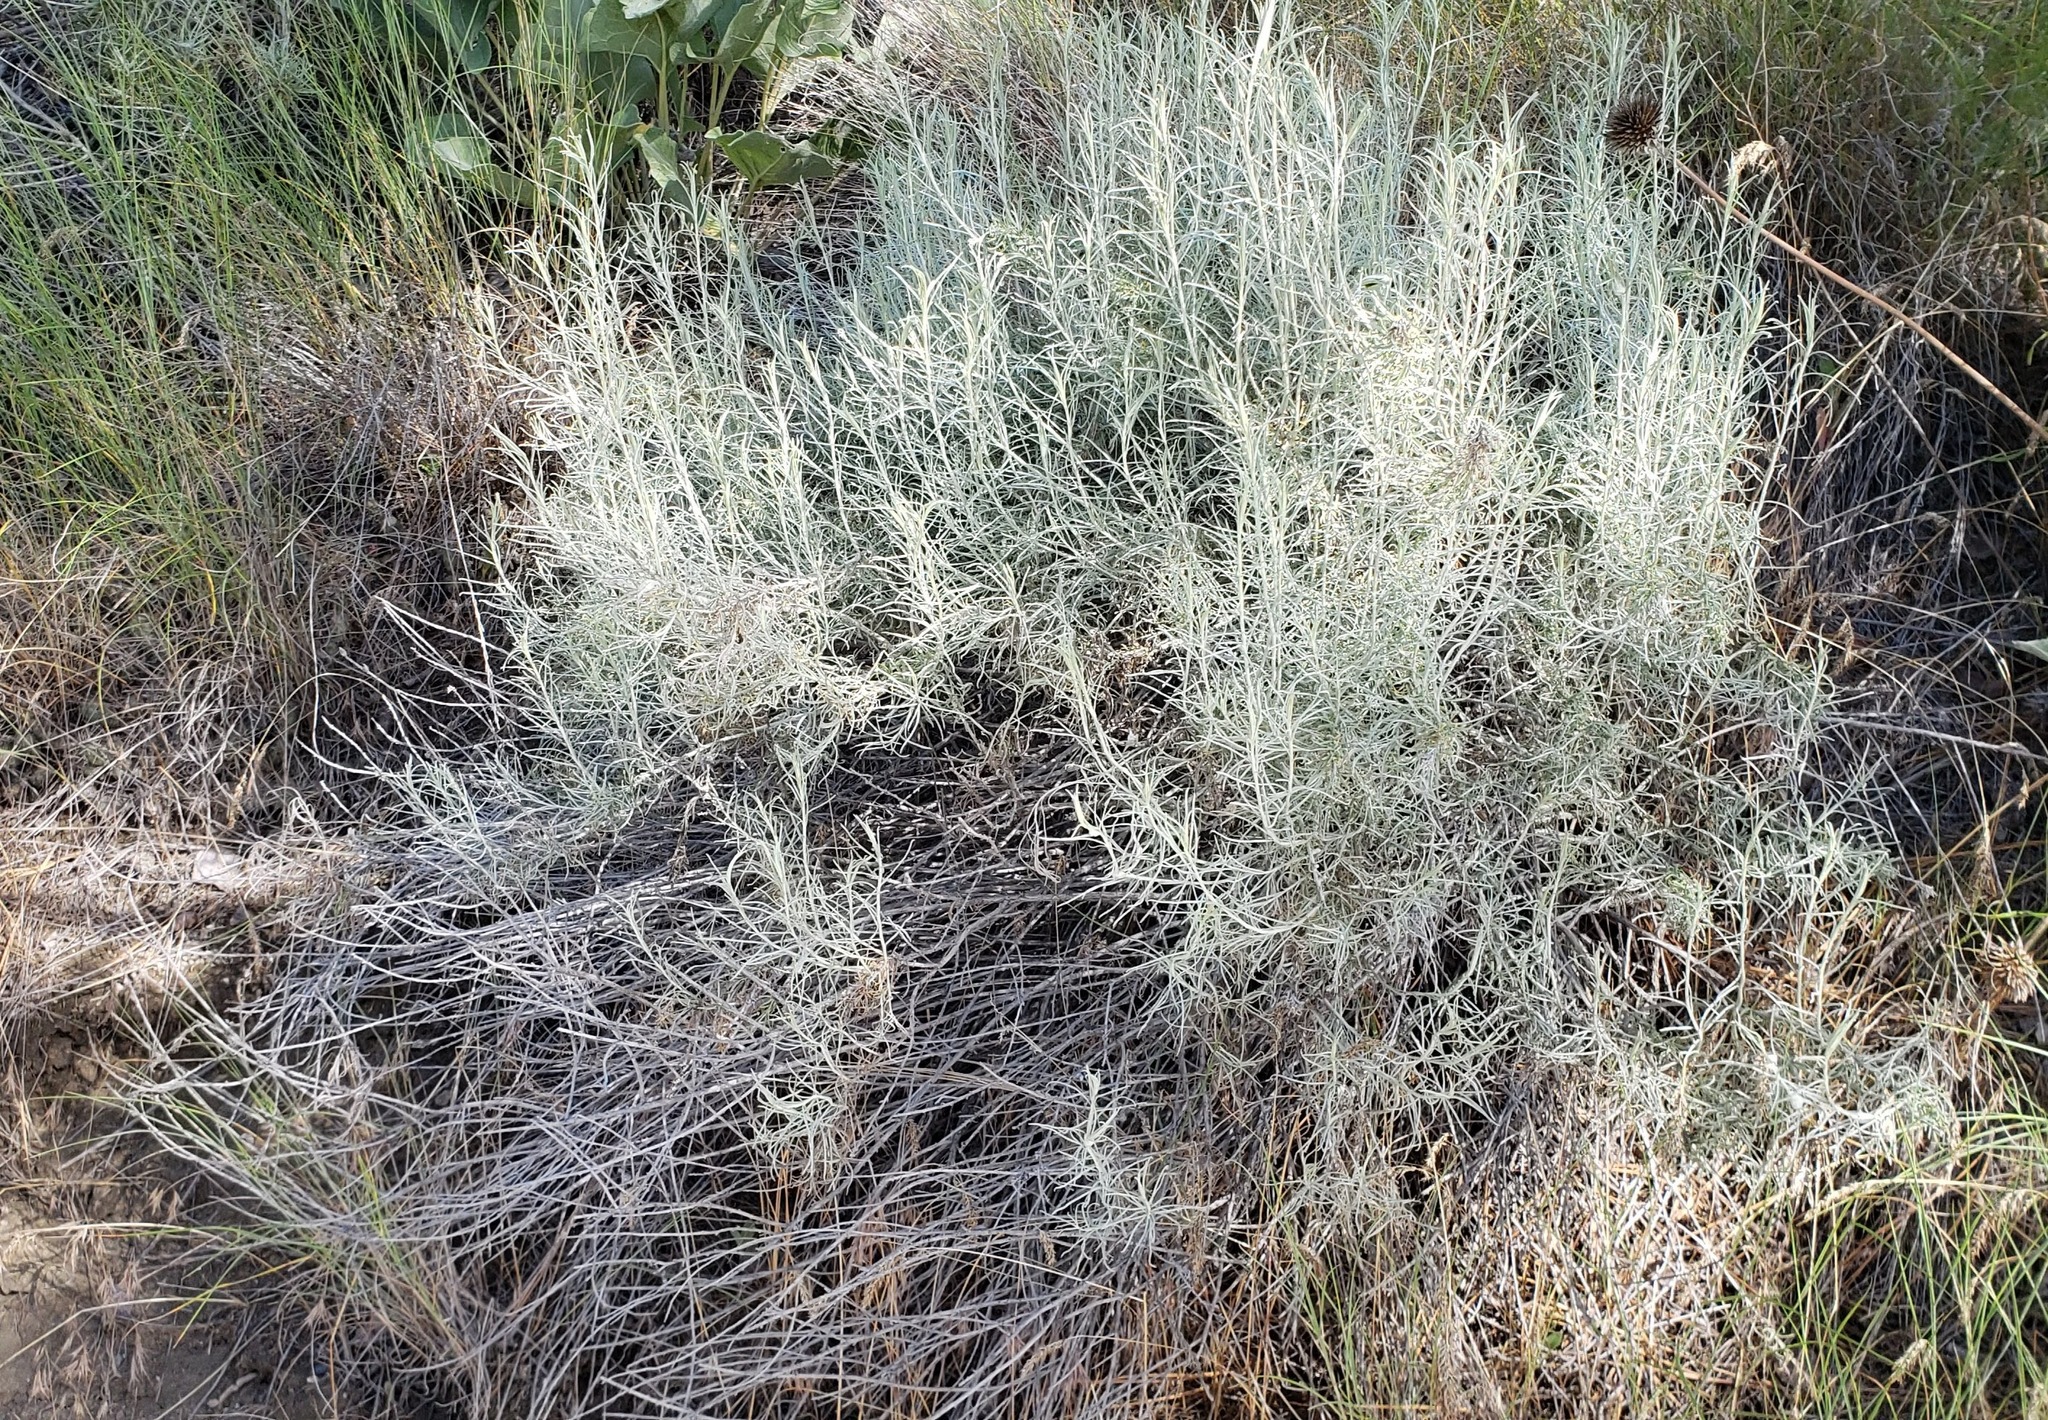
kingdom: Plantae
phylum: Tracheophyta
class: Magnoliopsida
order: Asterales
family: Asteraceae
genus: Ericameria
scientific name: Ericameria nauseosa
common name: Rubber rabbitbrush
